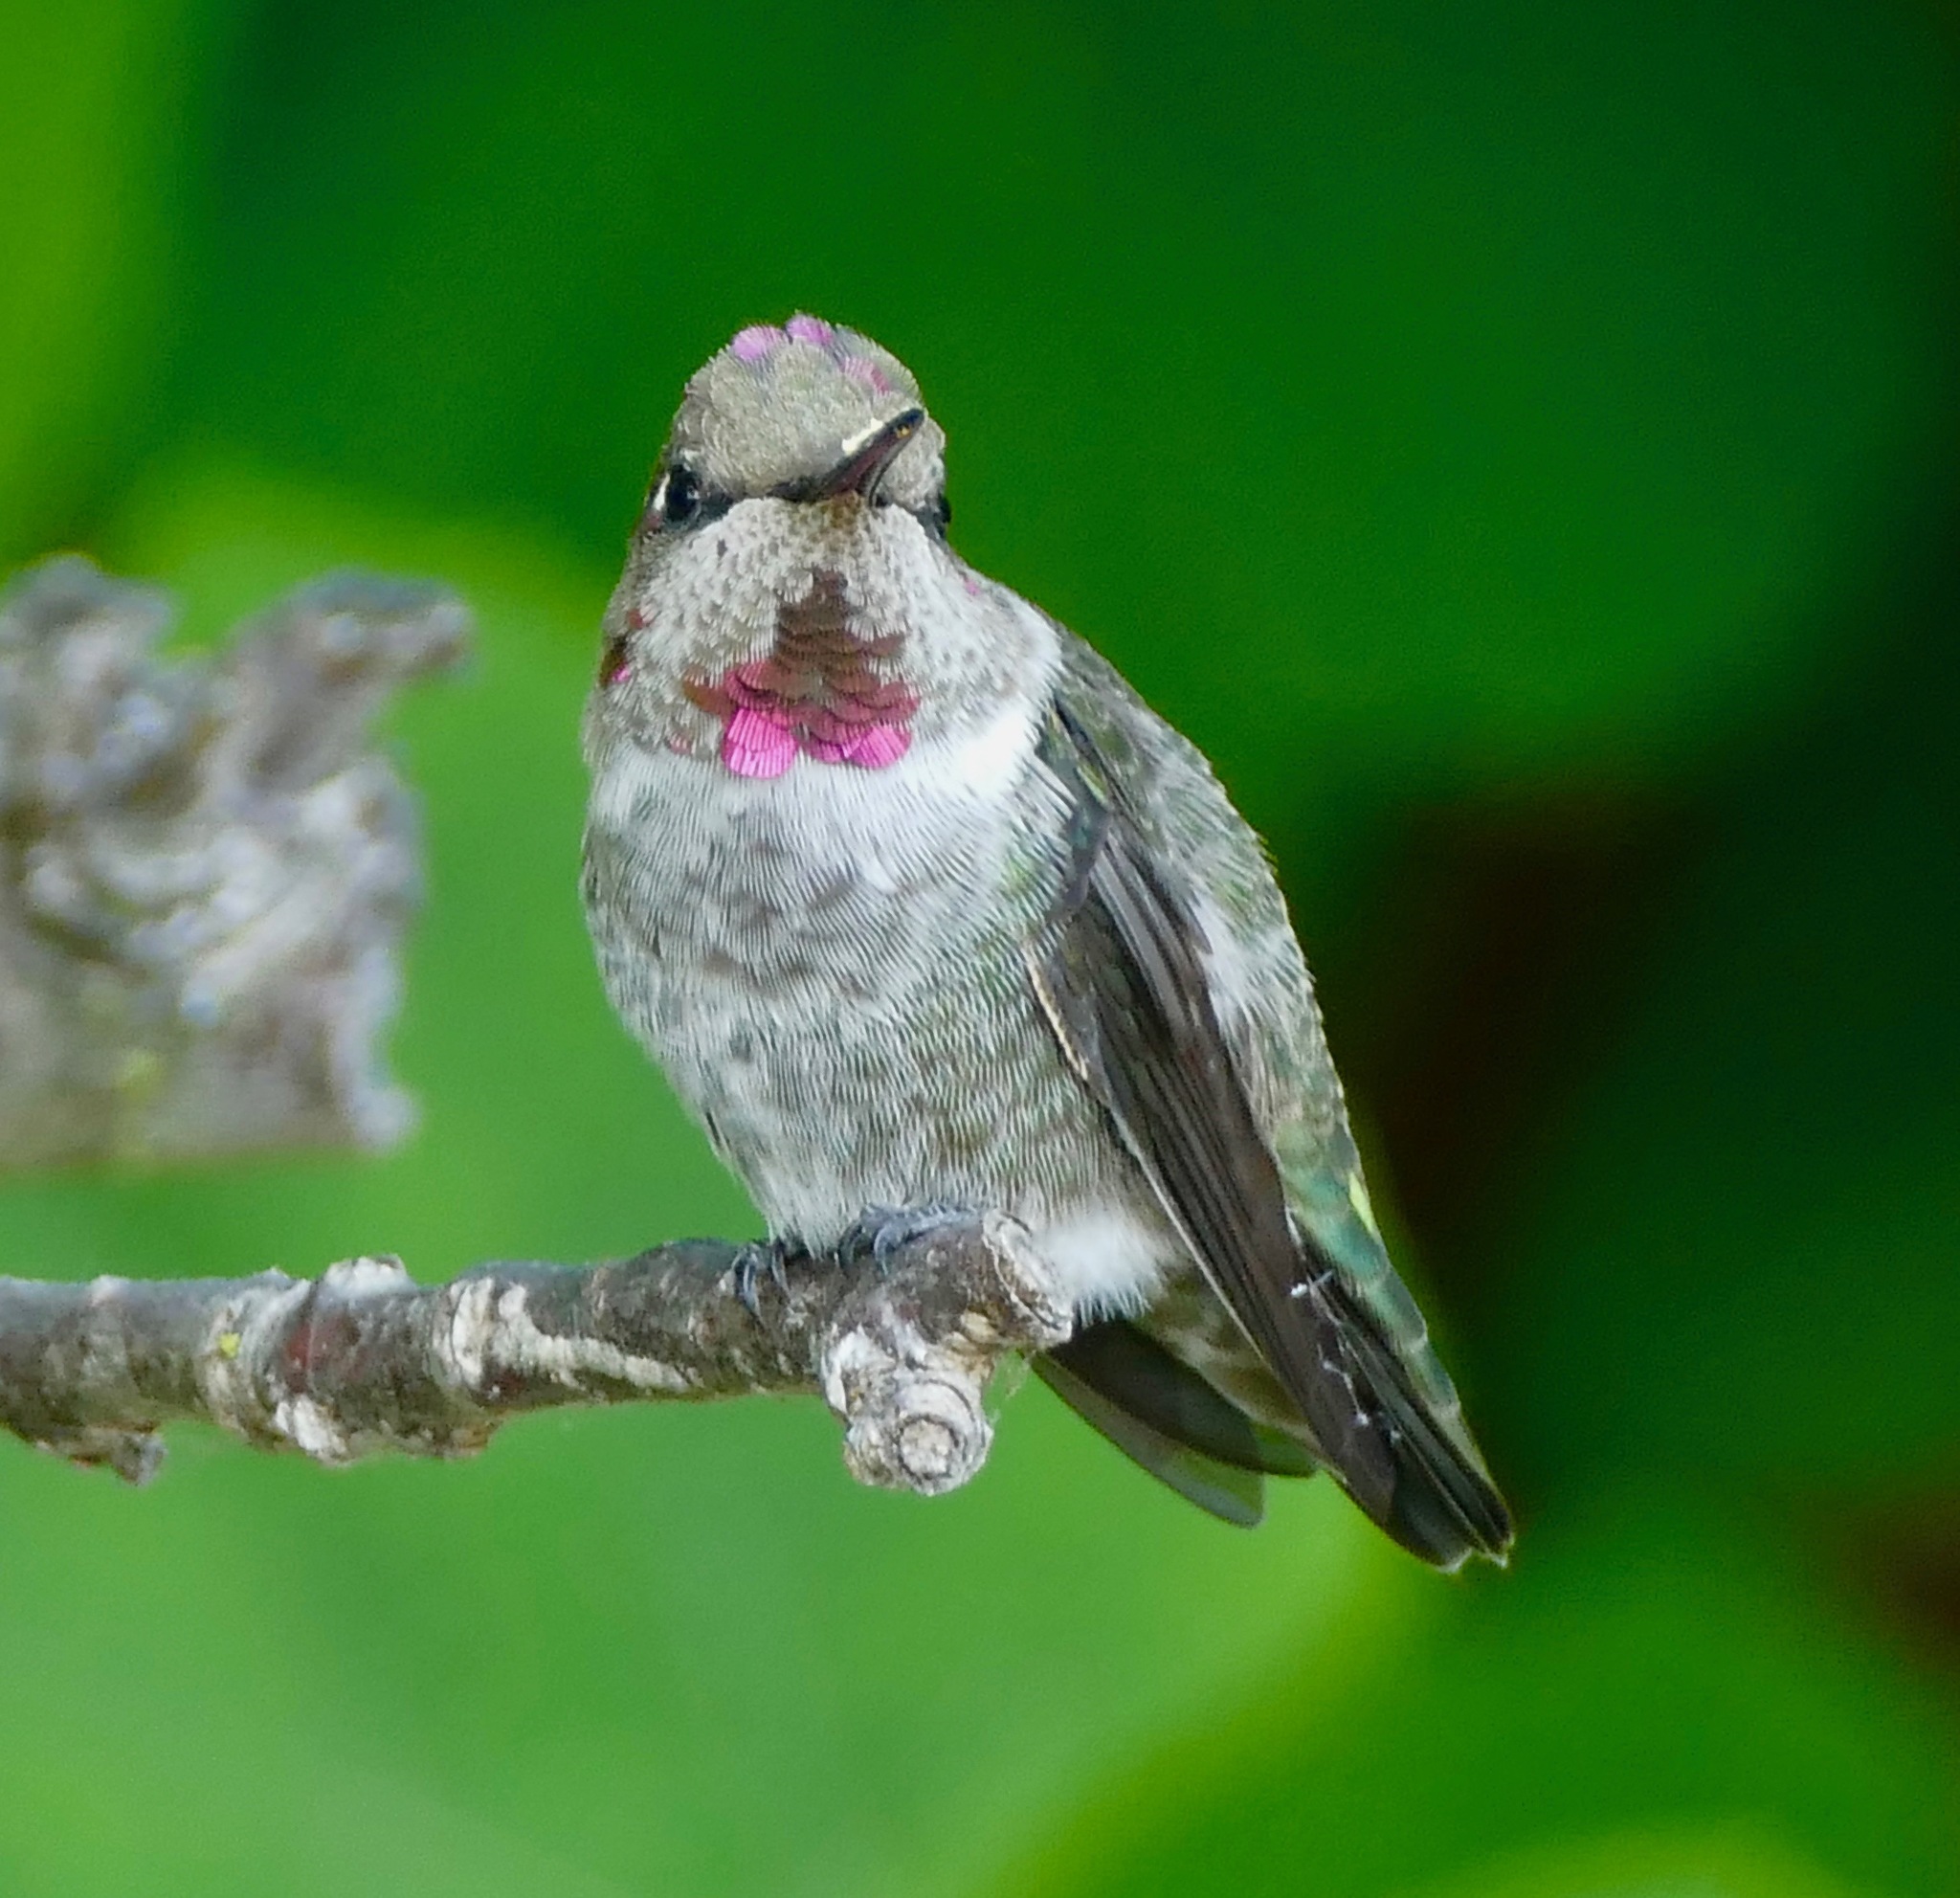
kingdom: Animalia
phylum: Chordata
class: Aves
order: Apodiformes
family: Trochilidae
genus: Calypte
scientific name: Calypte anna
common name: Anna's hummingbird
